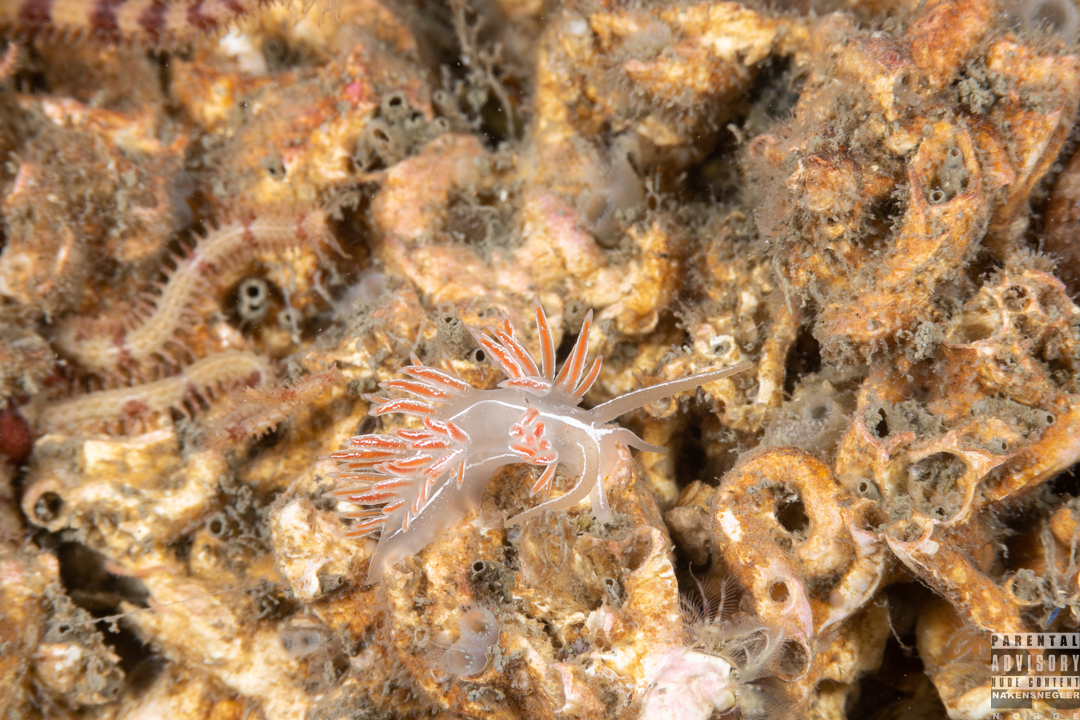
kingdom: Animalia
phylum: Mollusca
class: Gastropoda
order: Nudibranchia
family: Coryphellidae
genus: Coryphella
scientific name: Coryphella chriskaugei
